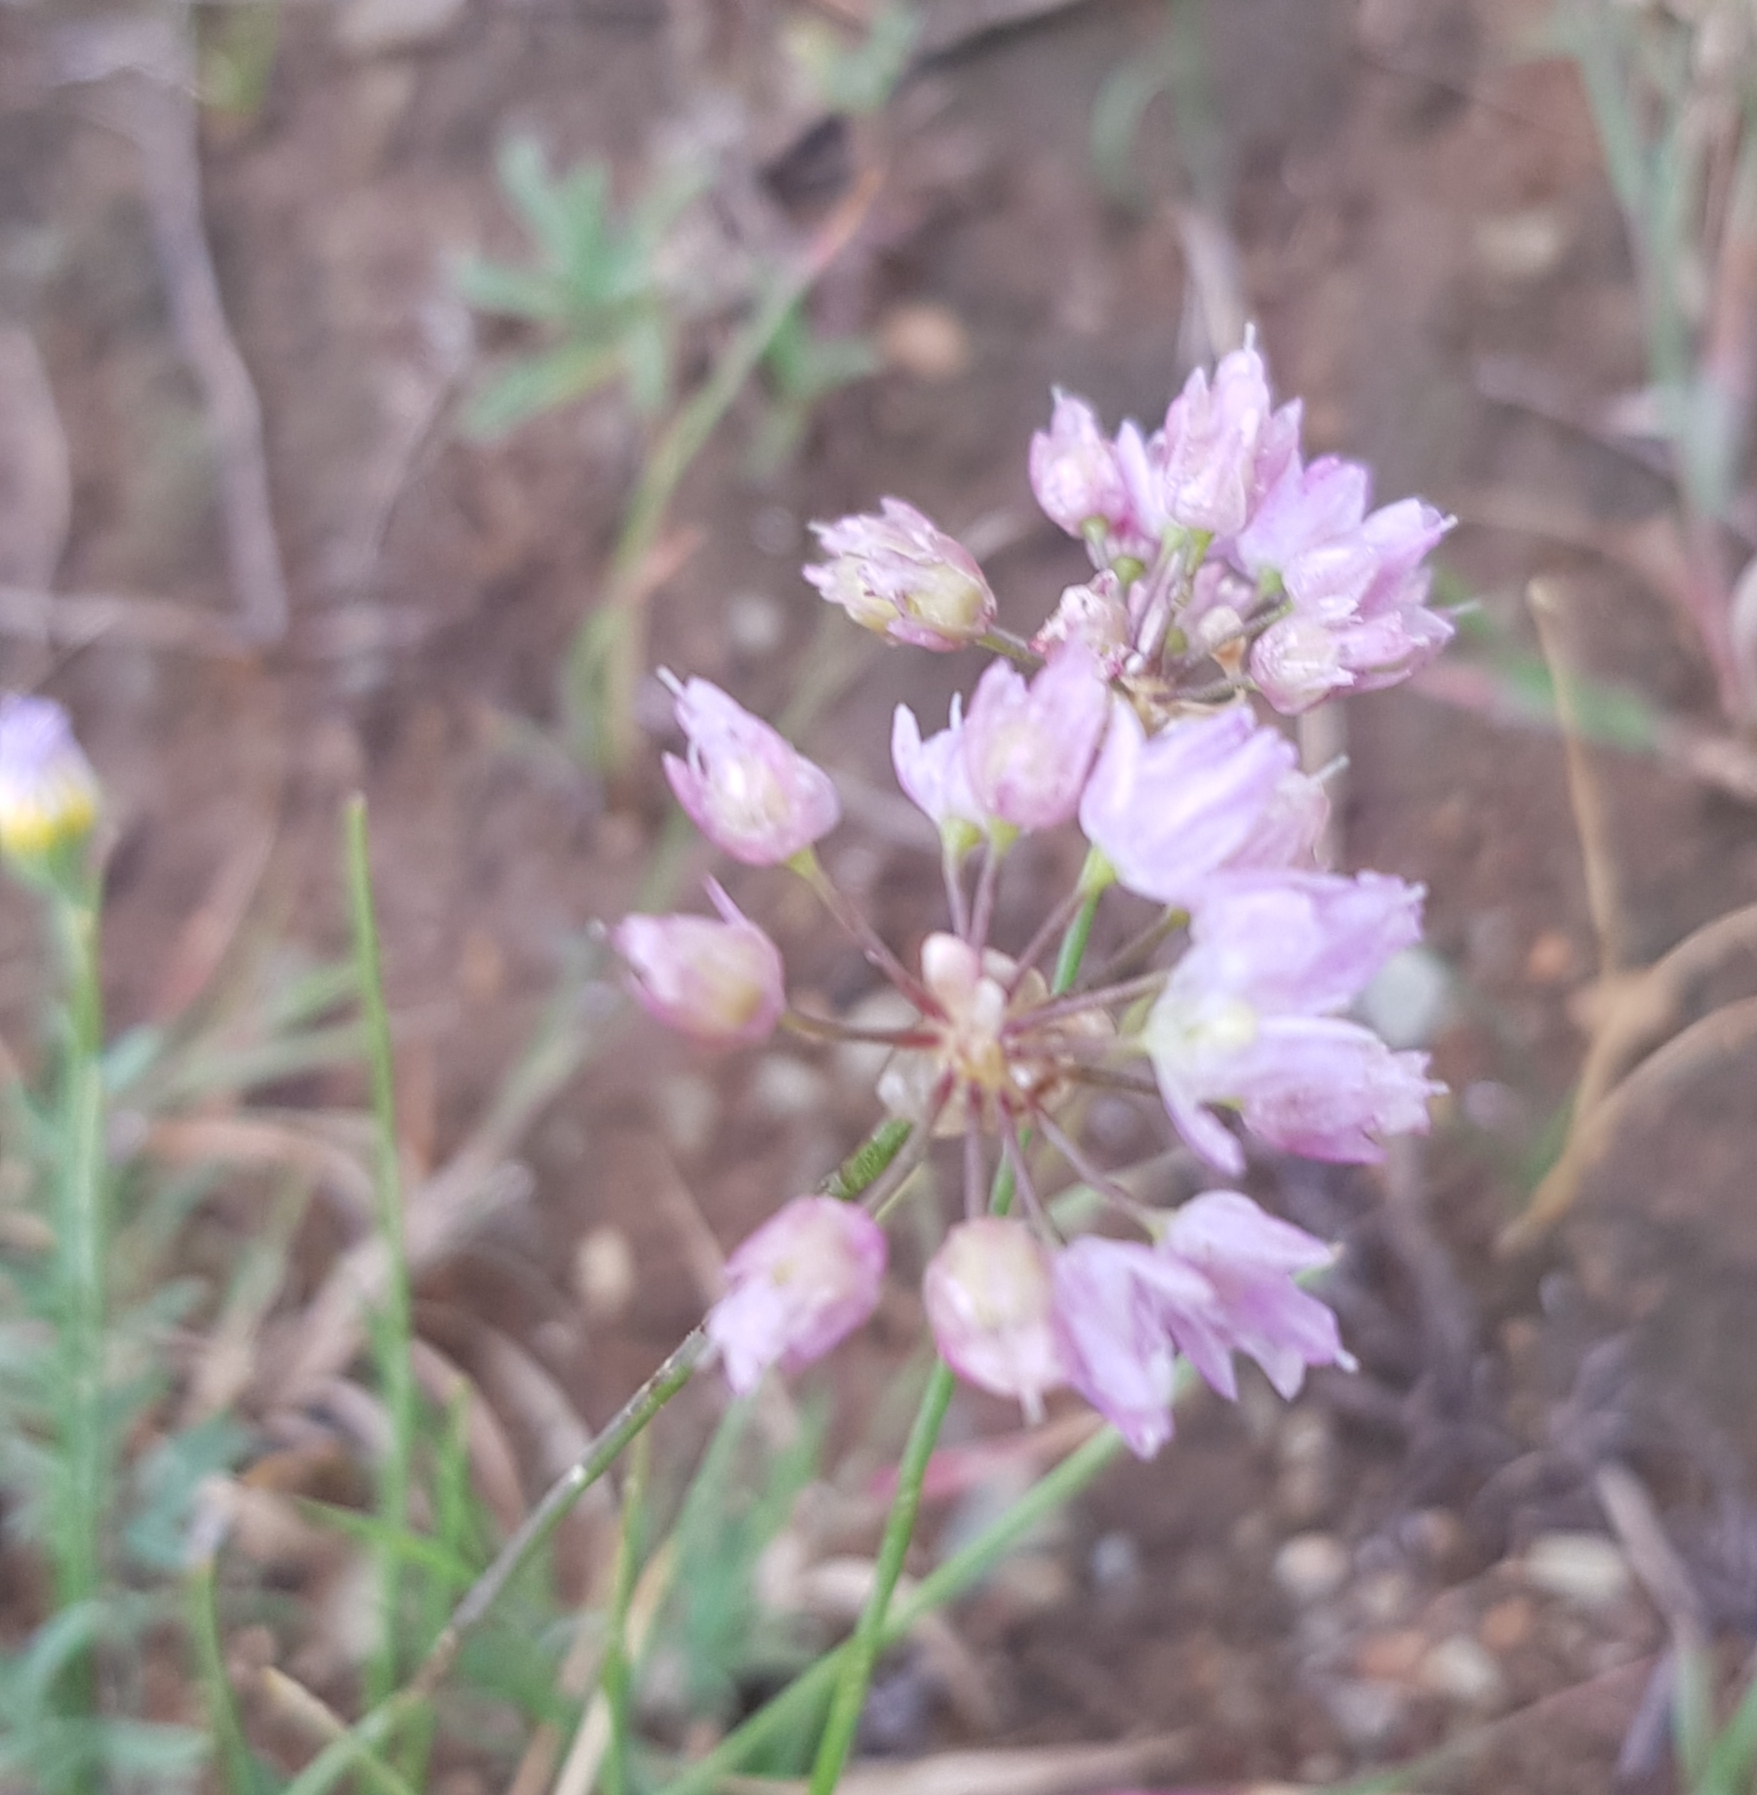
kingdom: Plantae
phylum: Tracheophyta
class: Liliopsida
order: Asparagales
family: Amaryllidaceae
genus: Allium
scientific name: Allium bidentatum
